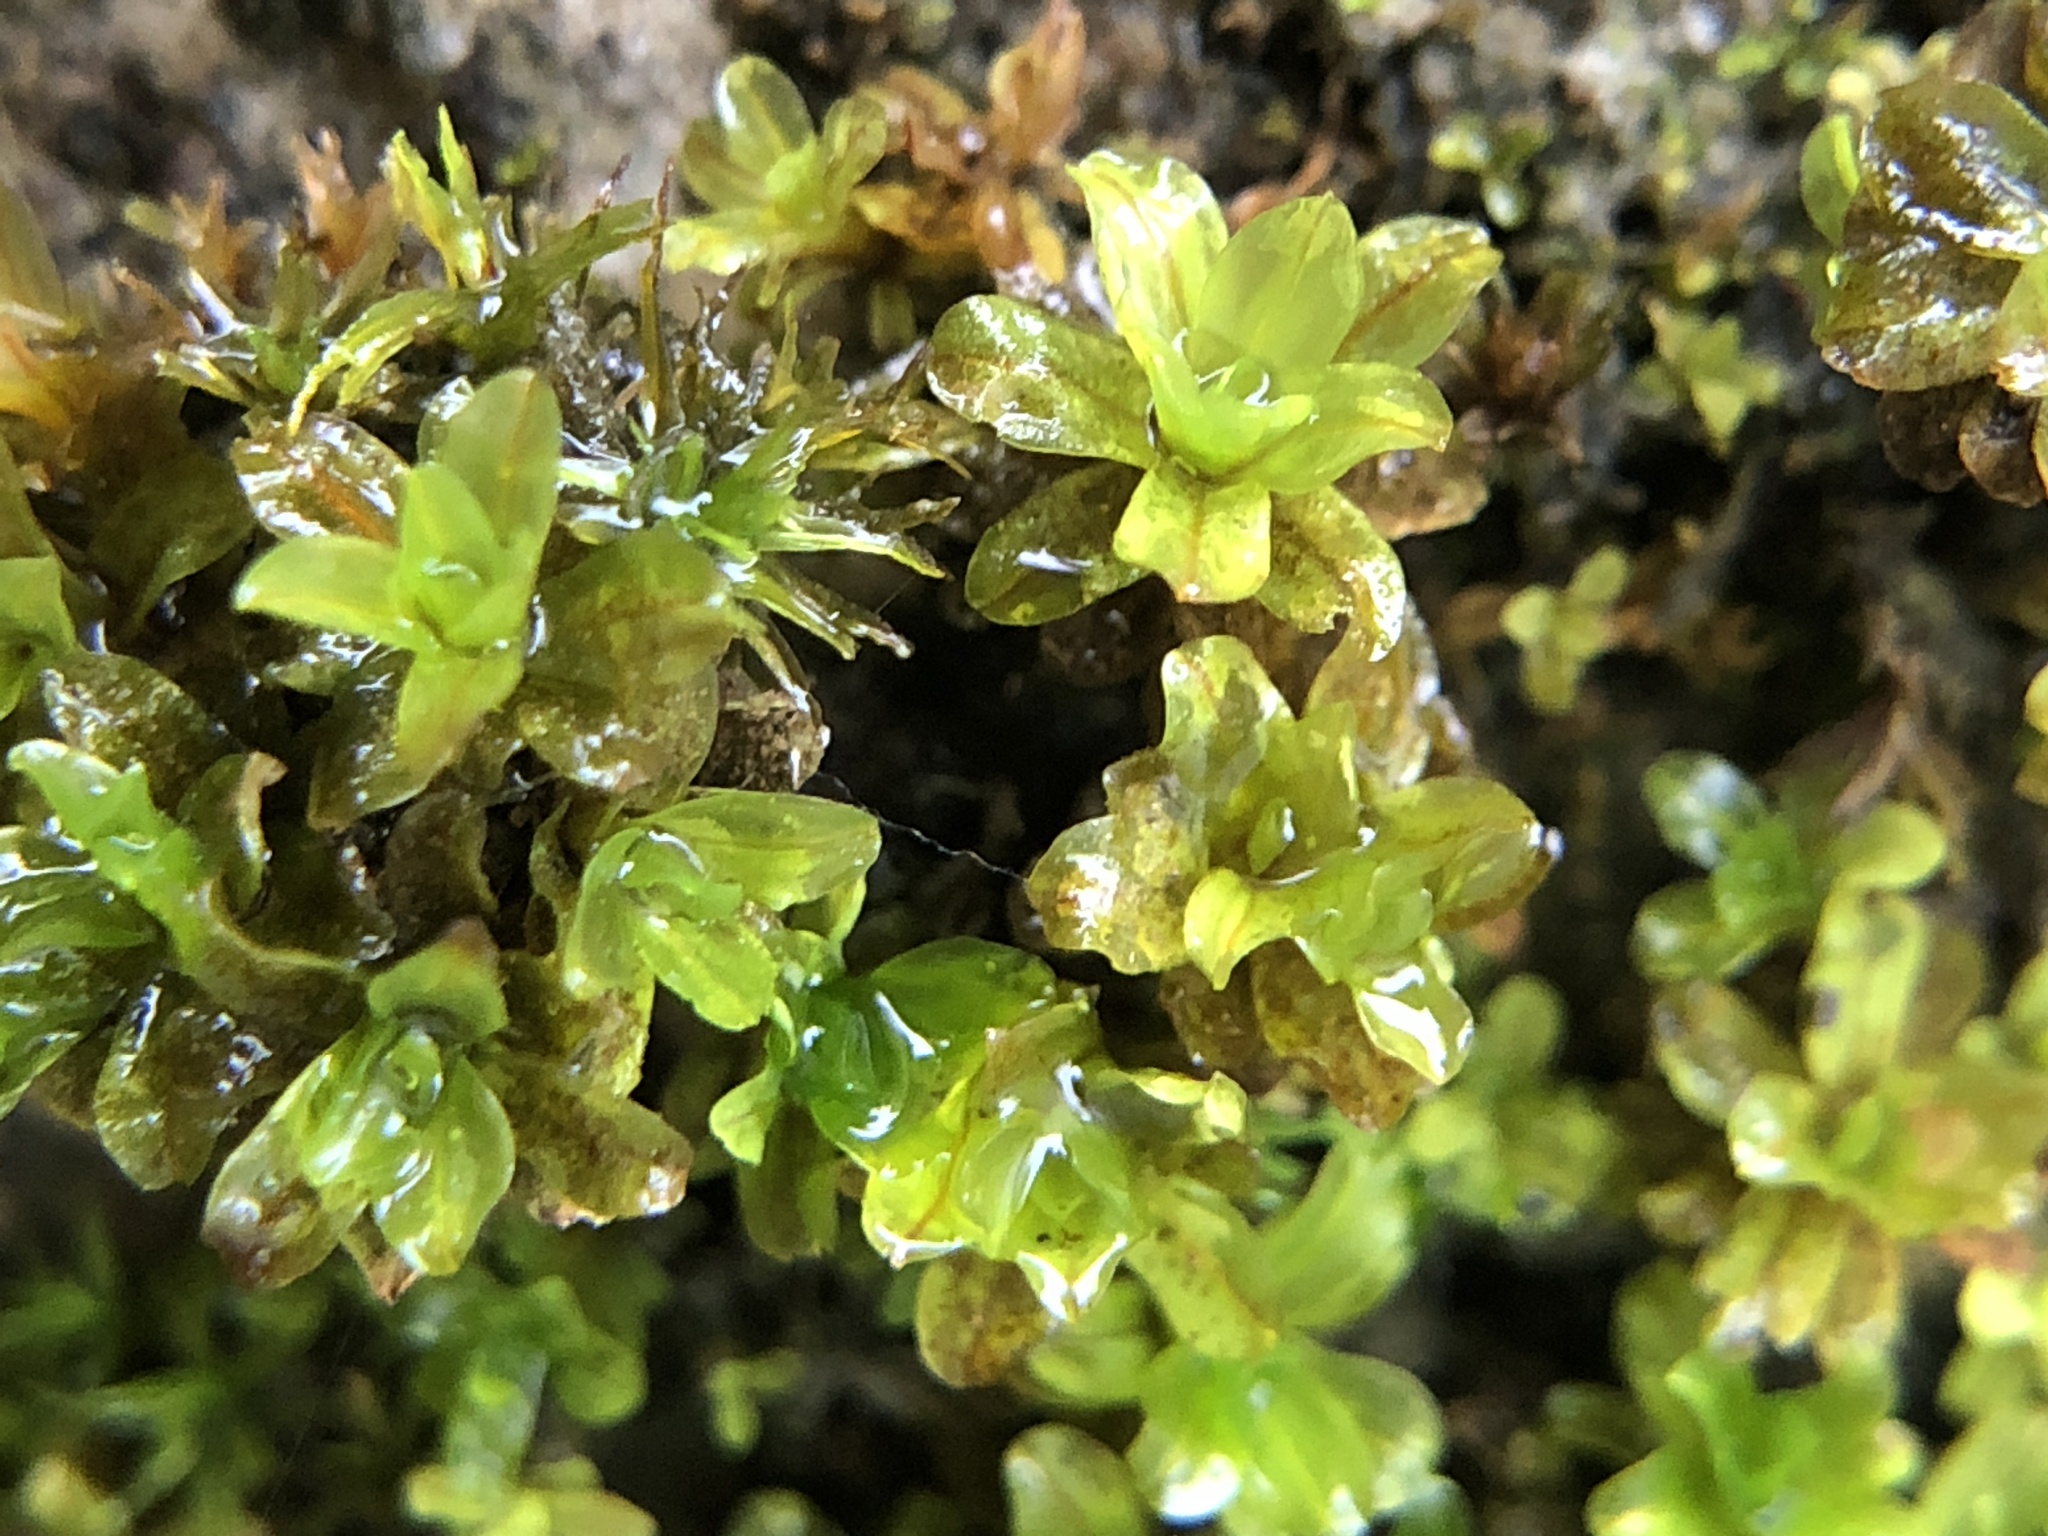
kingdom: Plantae
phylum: Bryophyta
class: Bryopsida
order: Pottiales
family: Pottiaceae
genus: Syntrichia
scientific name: Syntrichia latifolia
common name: Water screw-moss
